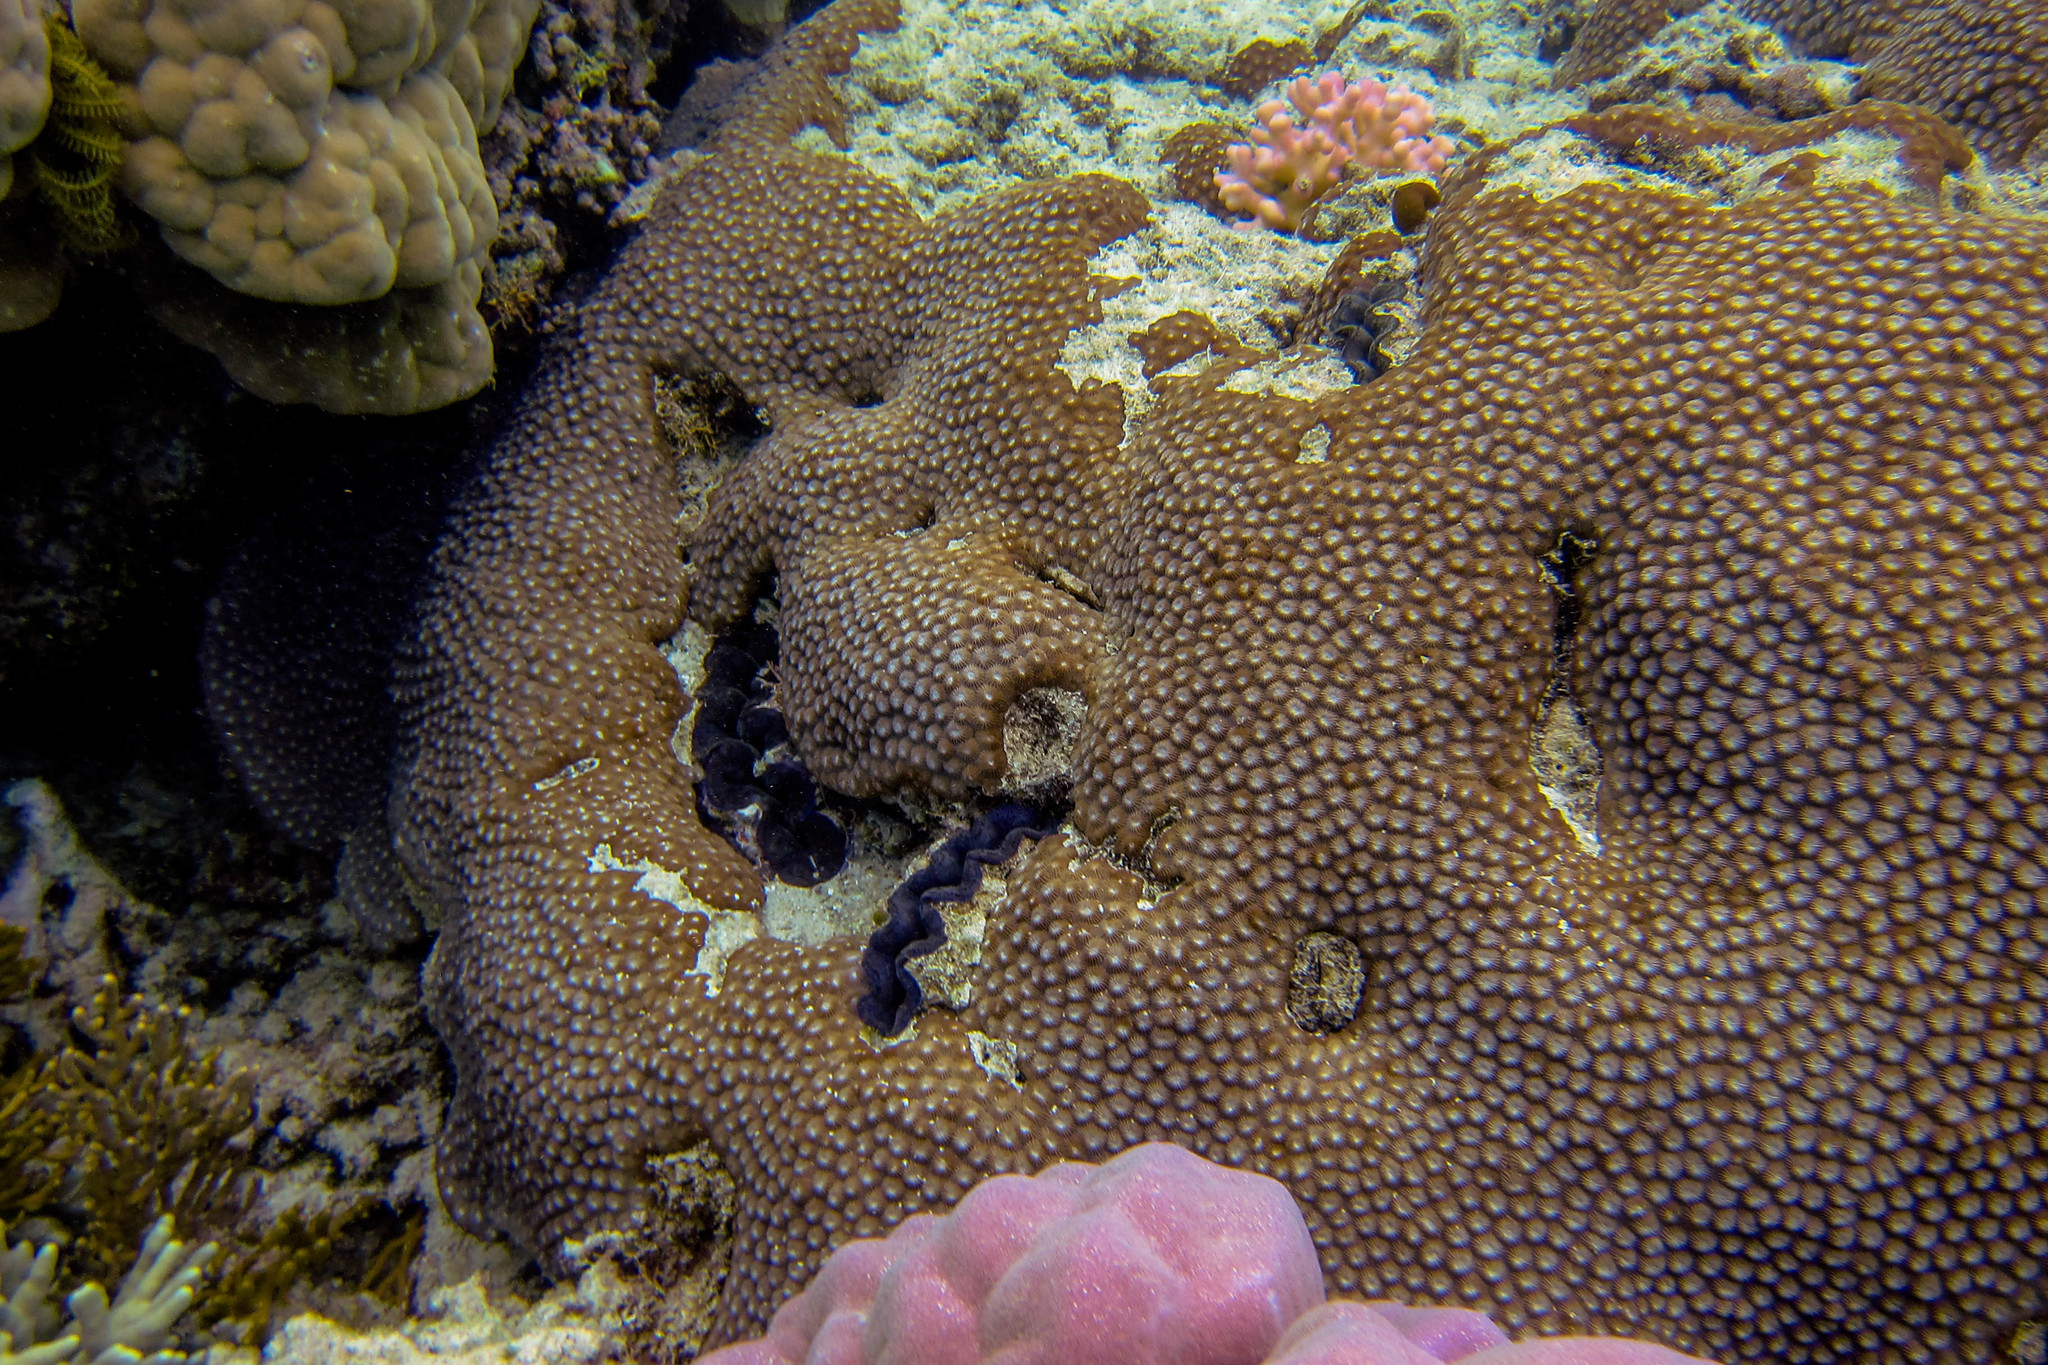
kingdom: Animalia
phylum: Cnidaria
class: Anthozoa
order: Scleractinia
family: Diploastraeidae
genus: Diploastrea
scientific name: Diploastrea heliopora
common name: Double-star coral
